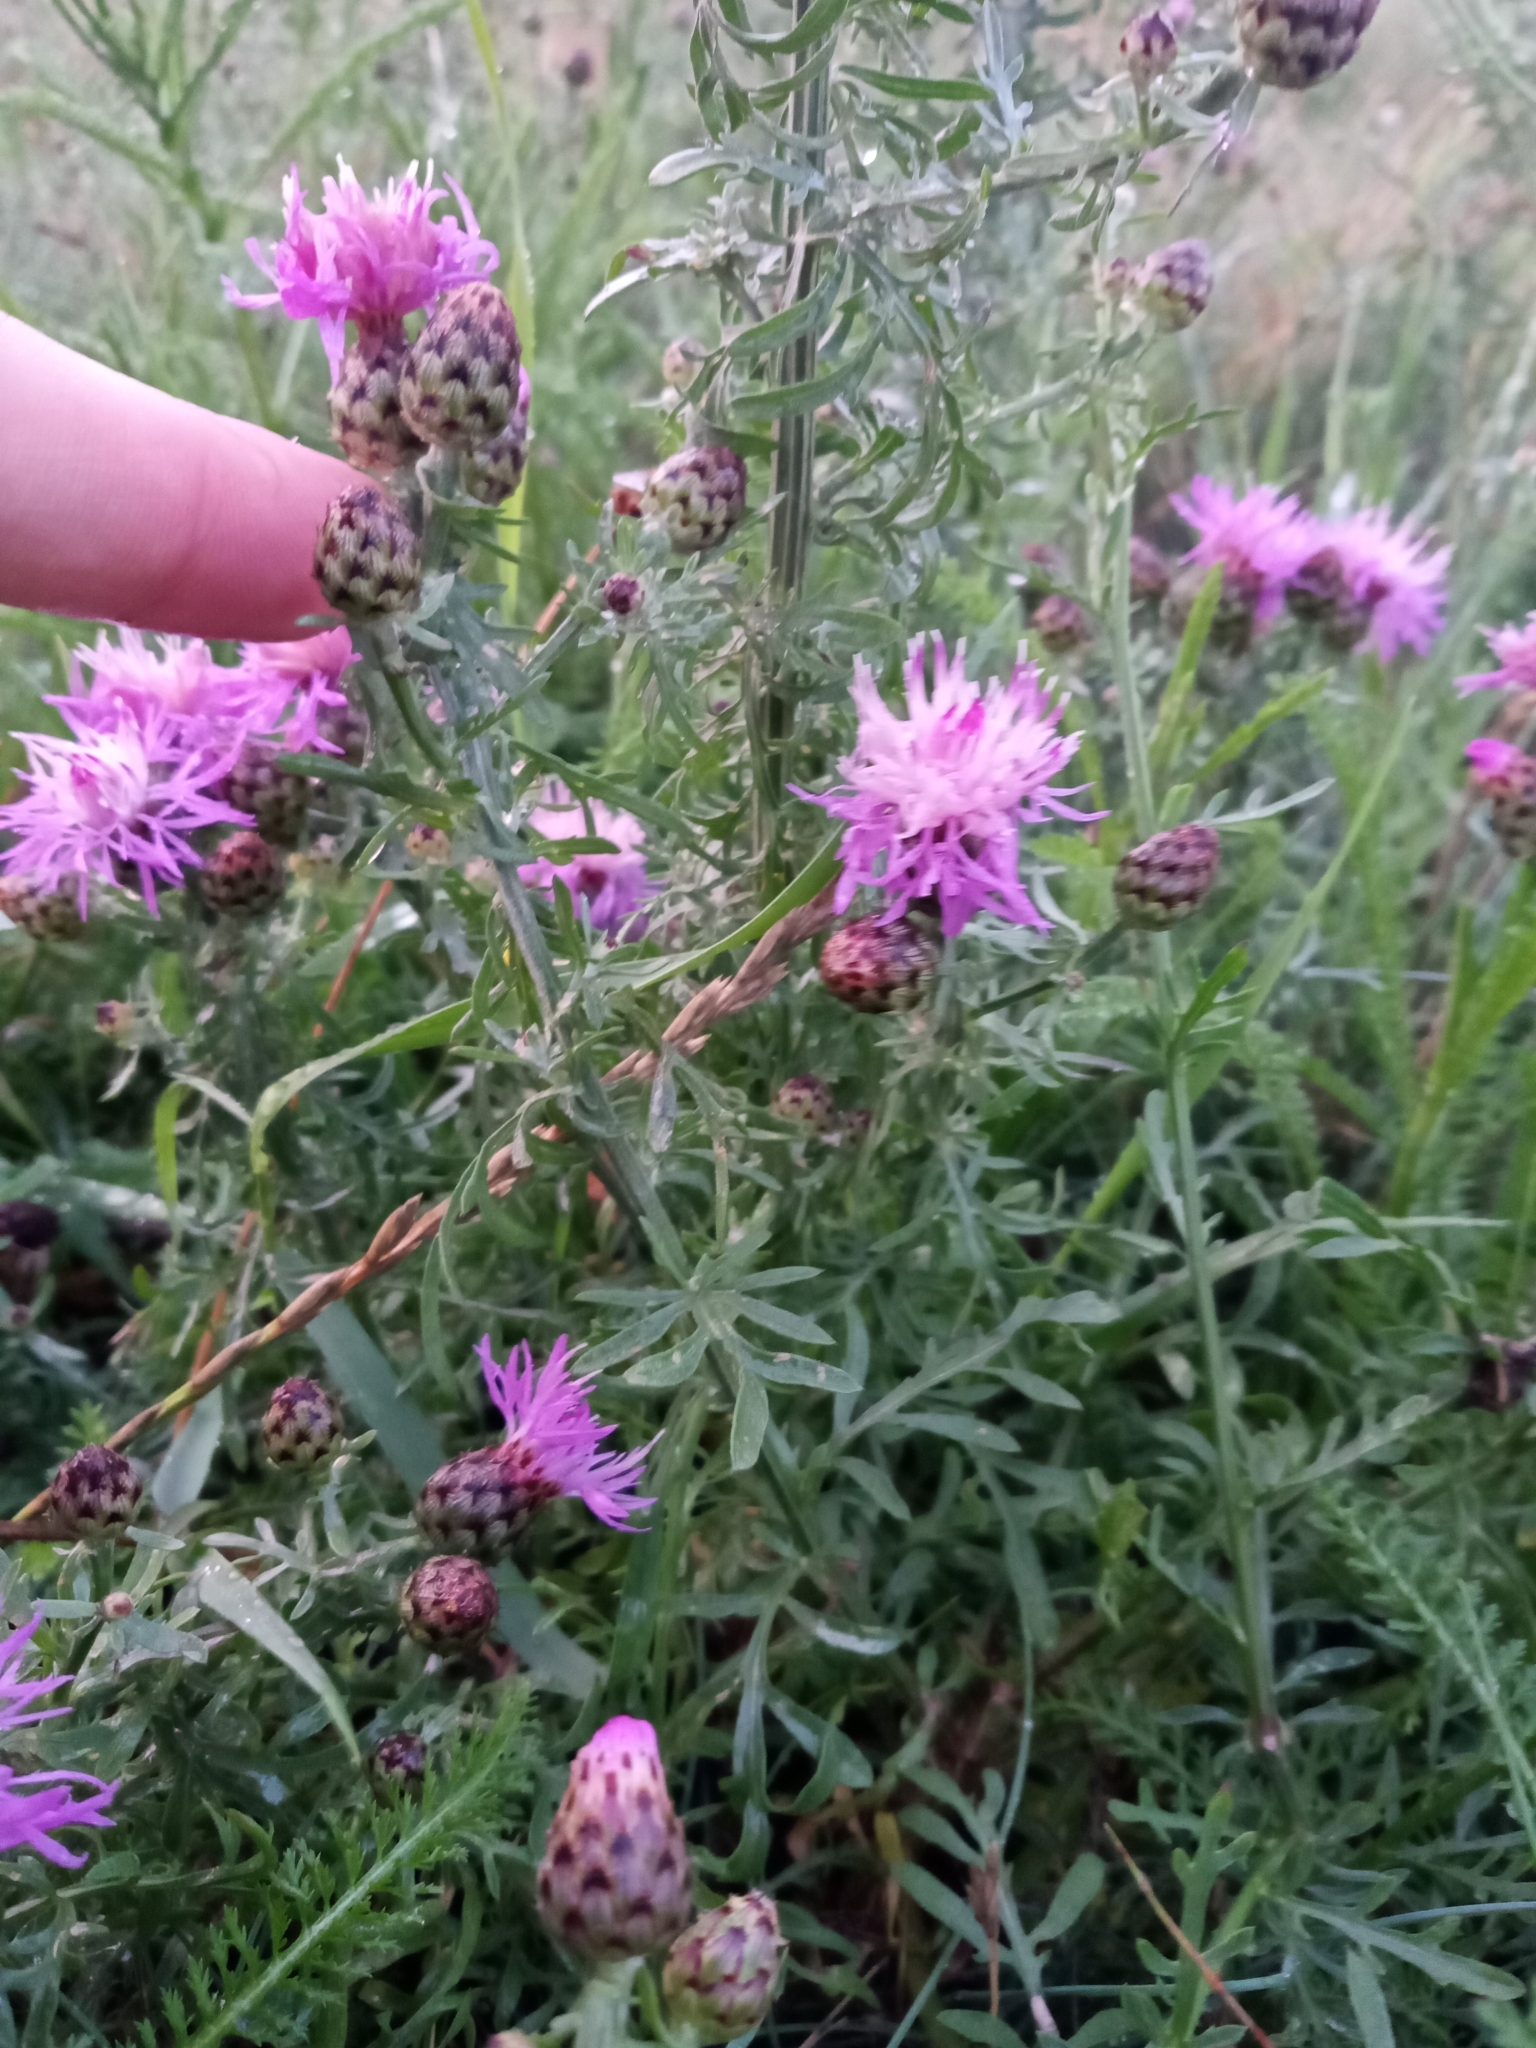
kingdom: Plantae
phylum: Tracheophyta
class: Magnoliopsida
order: Asterales
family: Asteraceae
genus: Centaurea
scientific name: Centaurea stoebe
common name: Spotted knapweed
